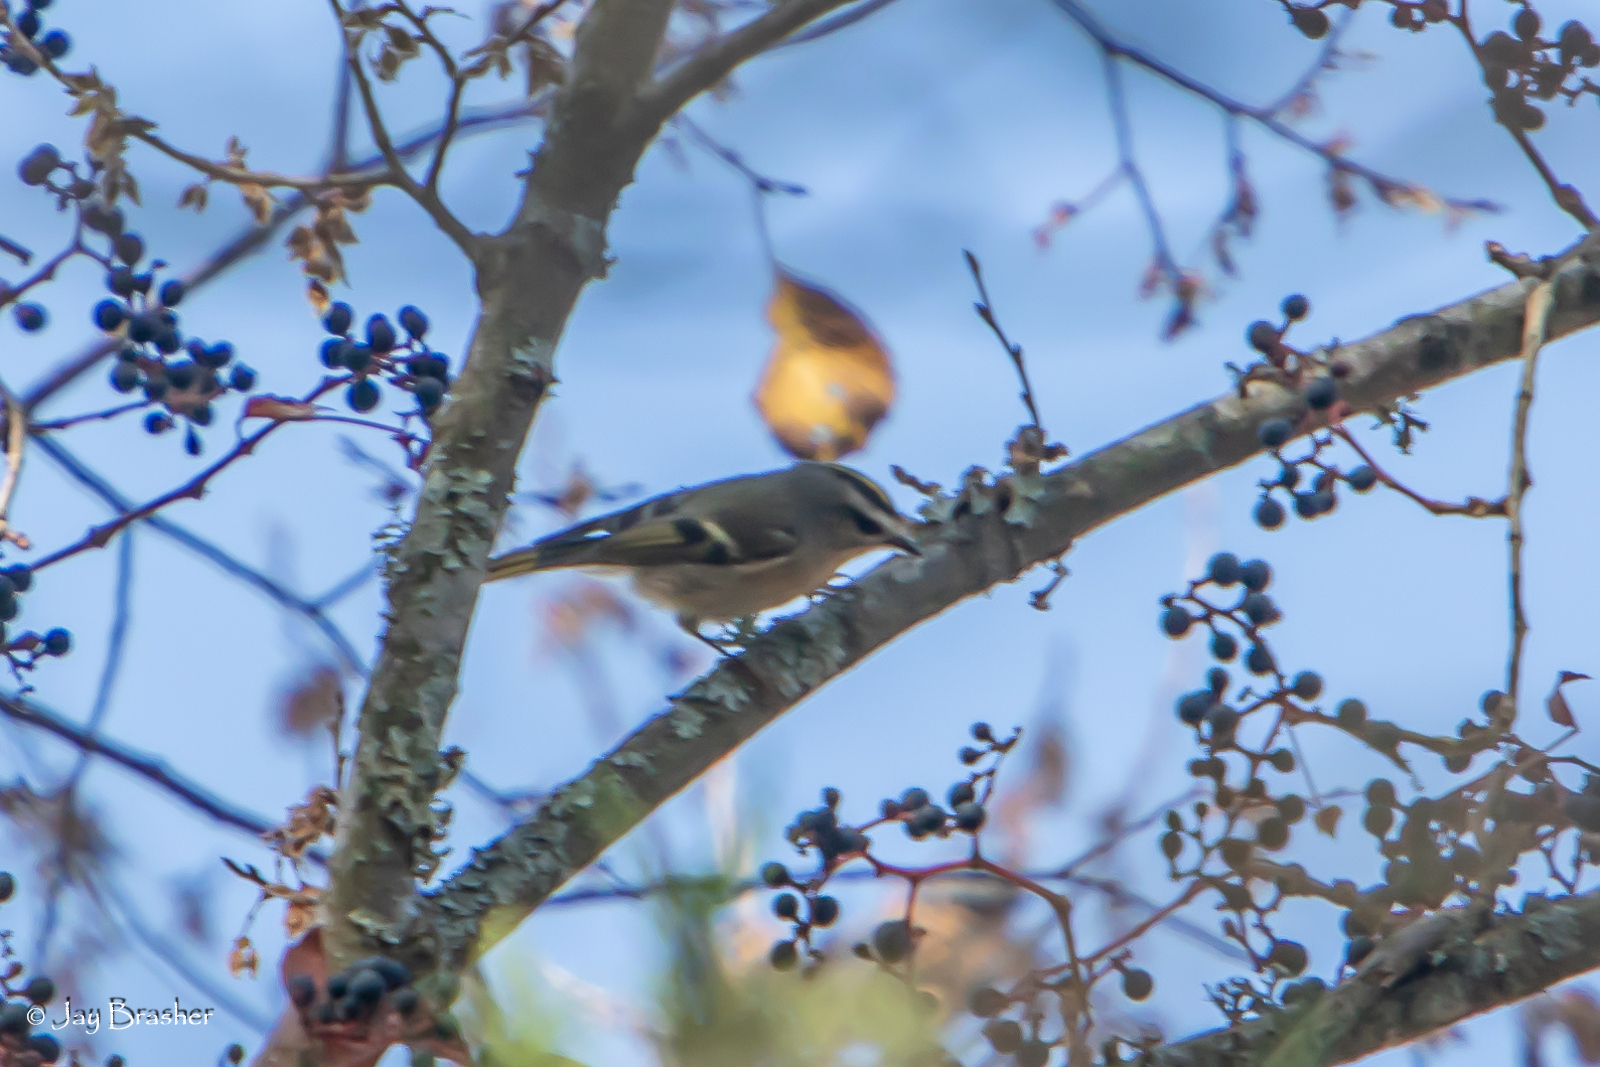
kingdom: Animalia
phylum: Chordata
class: Aves
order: Passeriformes
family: Regulidae
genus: Regulus
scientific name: Regulus satrapa
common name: Golden-crowned kinglet
